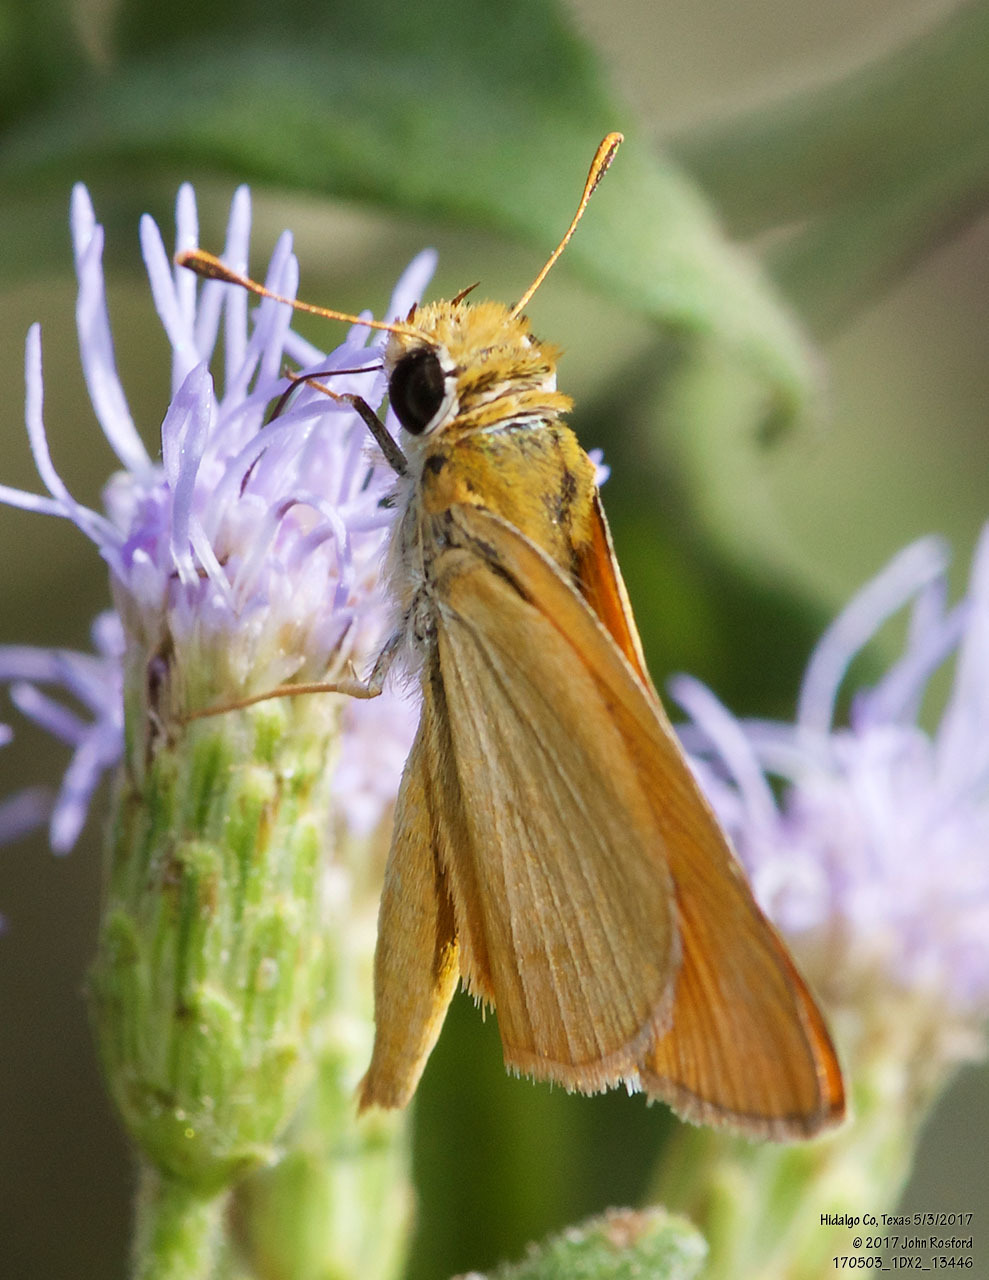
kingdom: Animalia
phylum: Arthropoda
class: Insecta
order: Lepidoptera
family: Hesperiidae
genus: Copaeodes
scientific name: Copaeodes aurantiaca
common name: Orange skipperling
